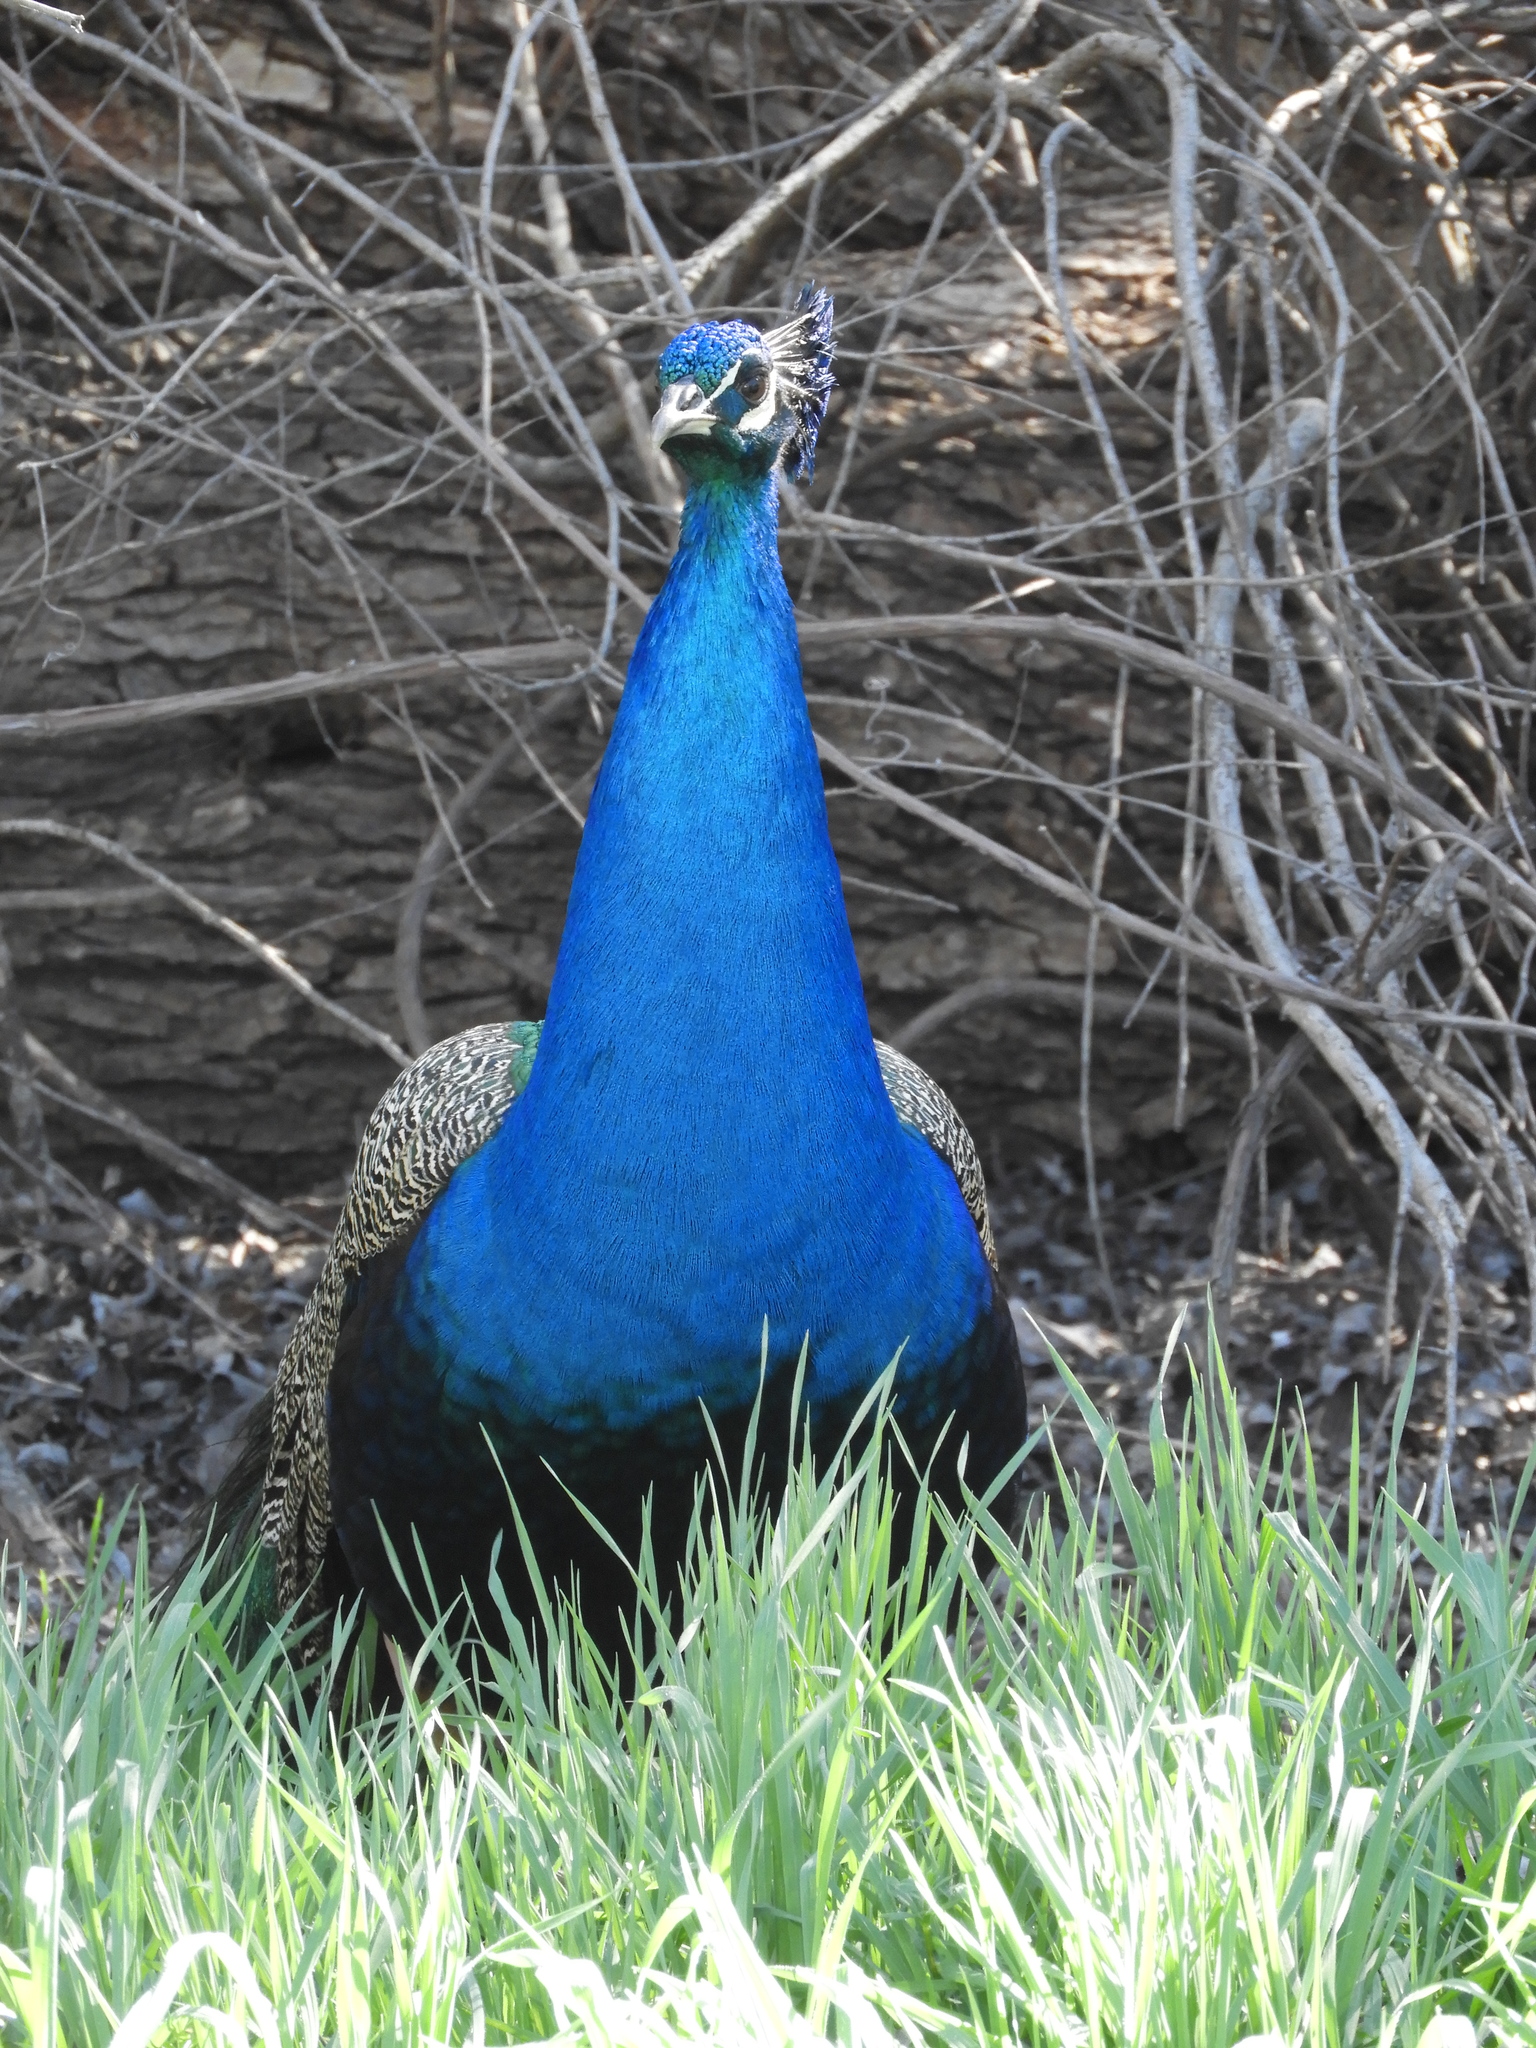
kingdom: Animalia
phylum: Chordata
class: Aves
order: Galliformes
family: Phasianidae
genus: Pavo
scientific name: Pavo cristatus
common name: Indian peafowl
